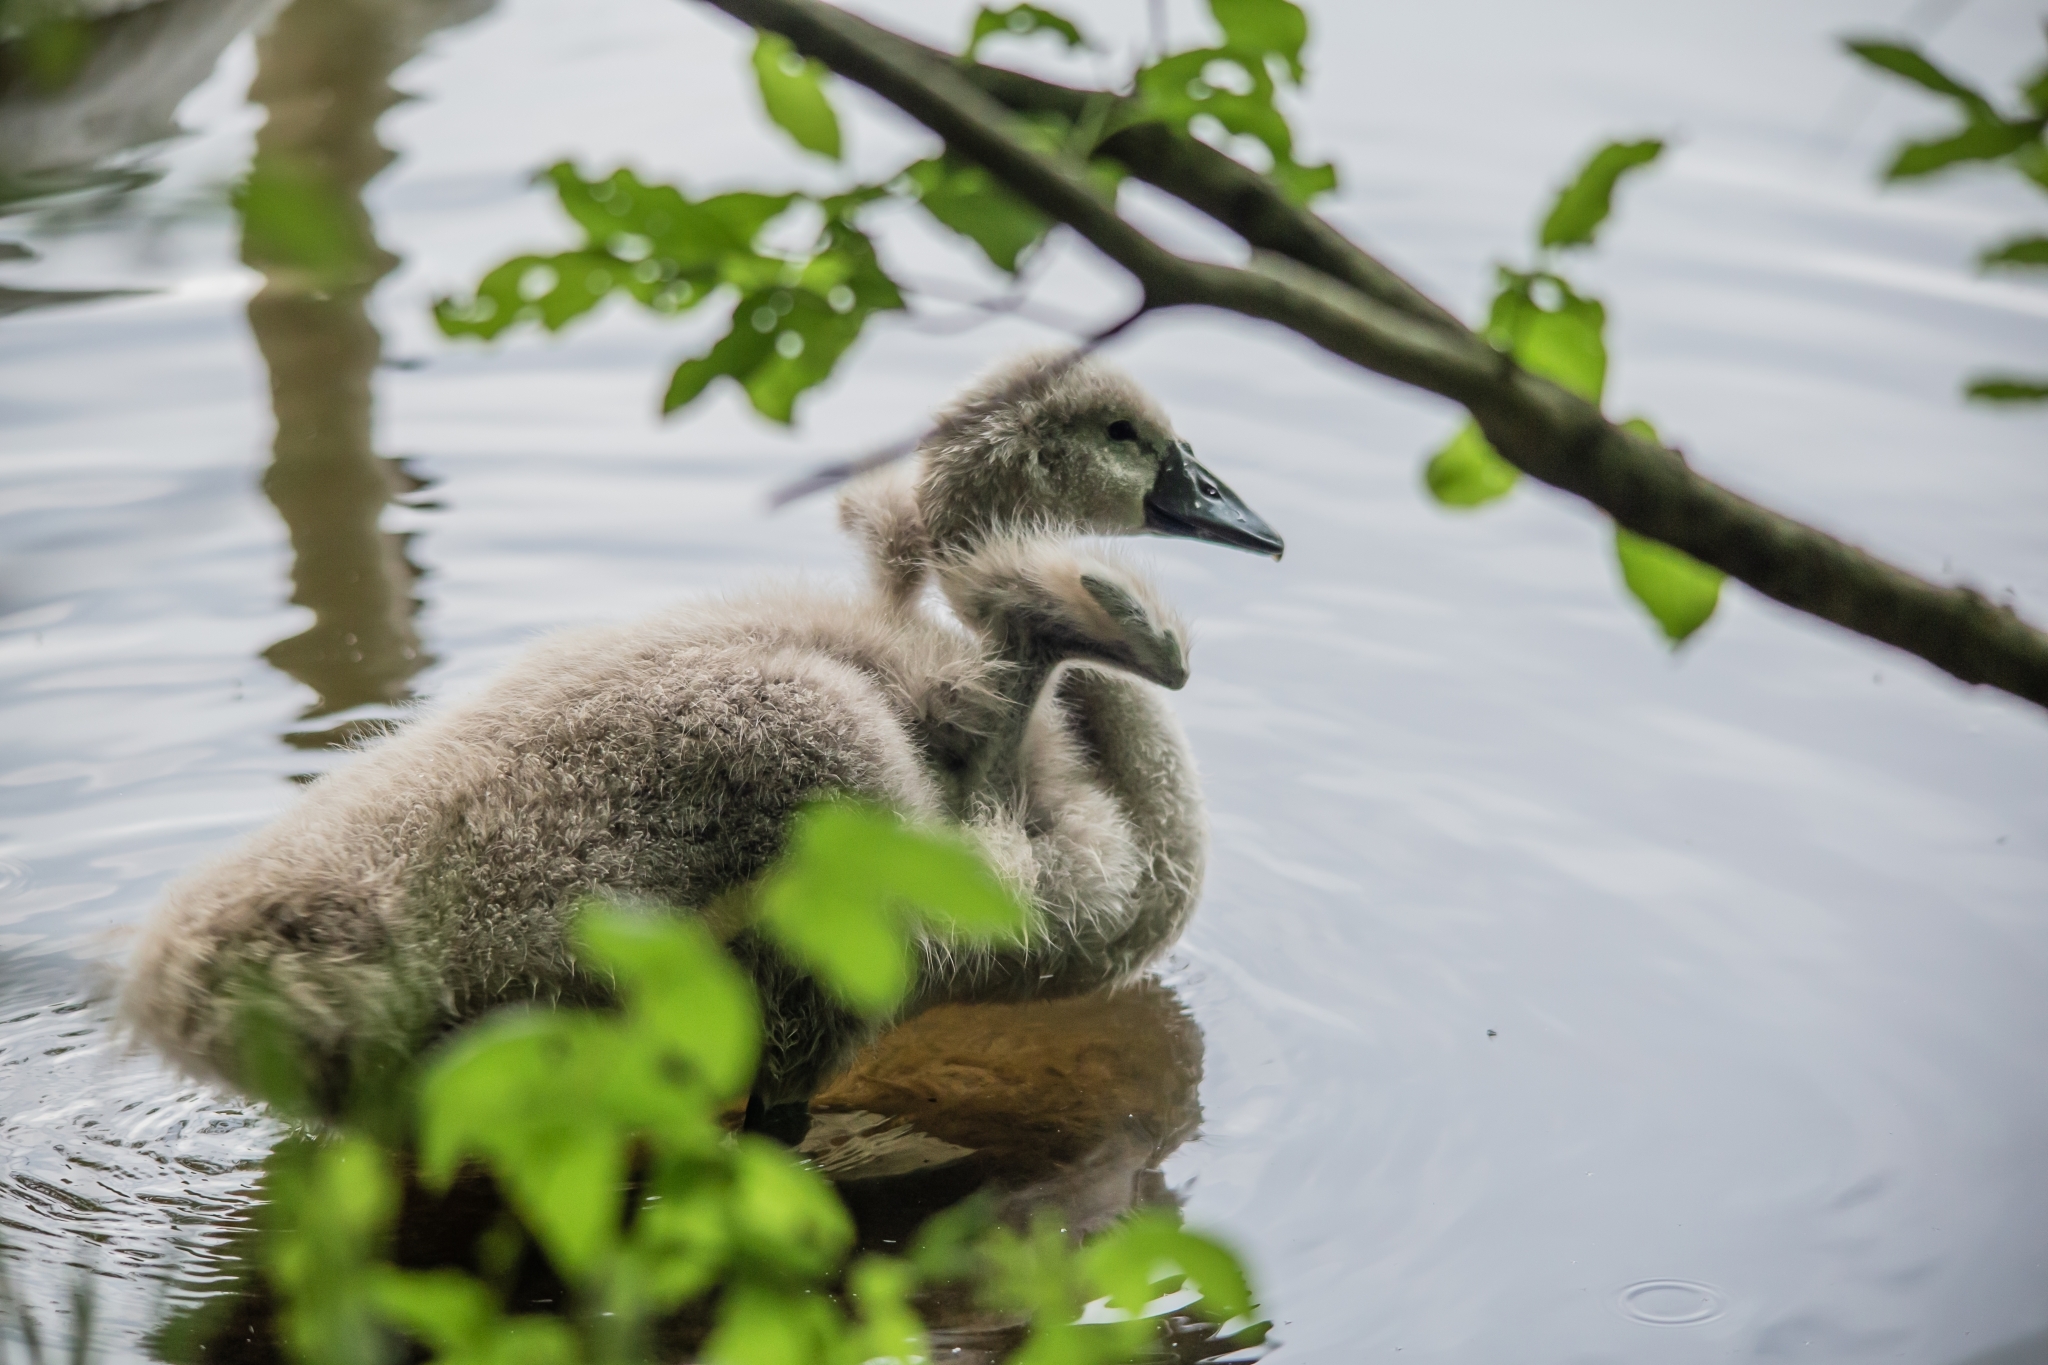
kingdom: Animalia
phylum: Chordata
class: Aves
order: Anseriformes
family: Anatidae
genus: Cygnus
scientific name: Cygnus olor
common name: Mute swan
